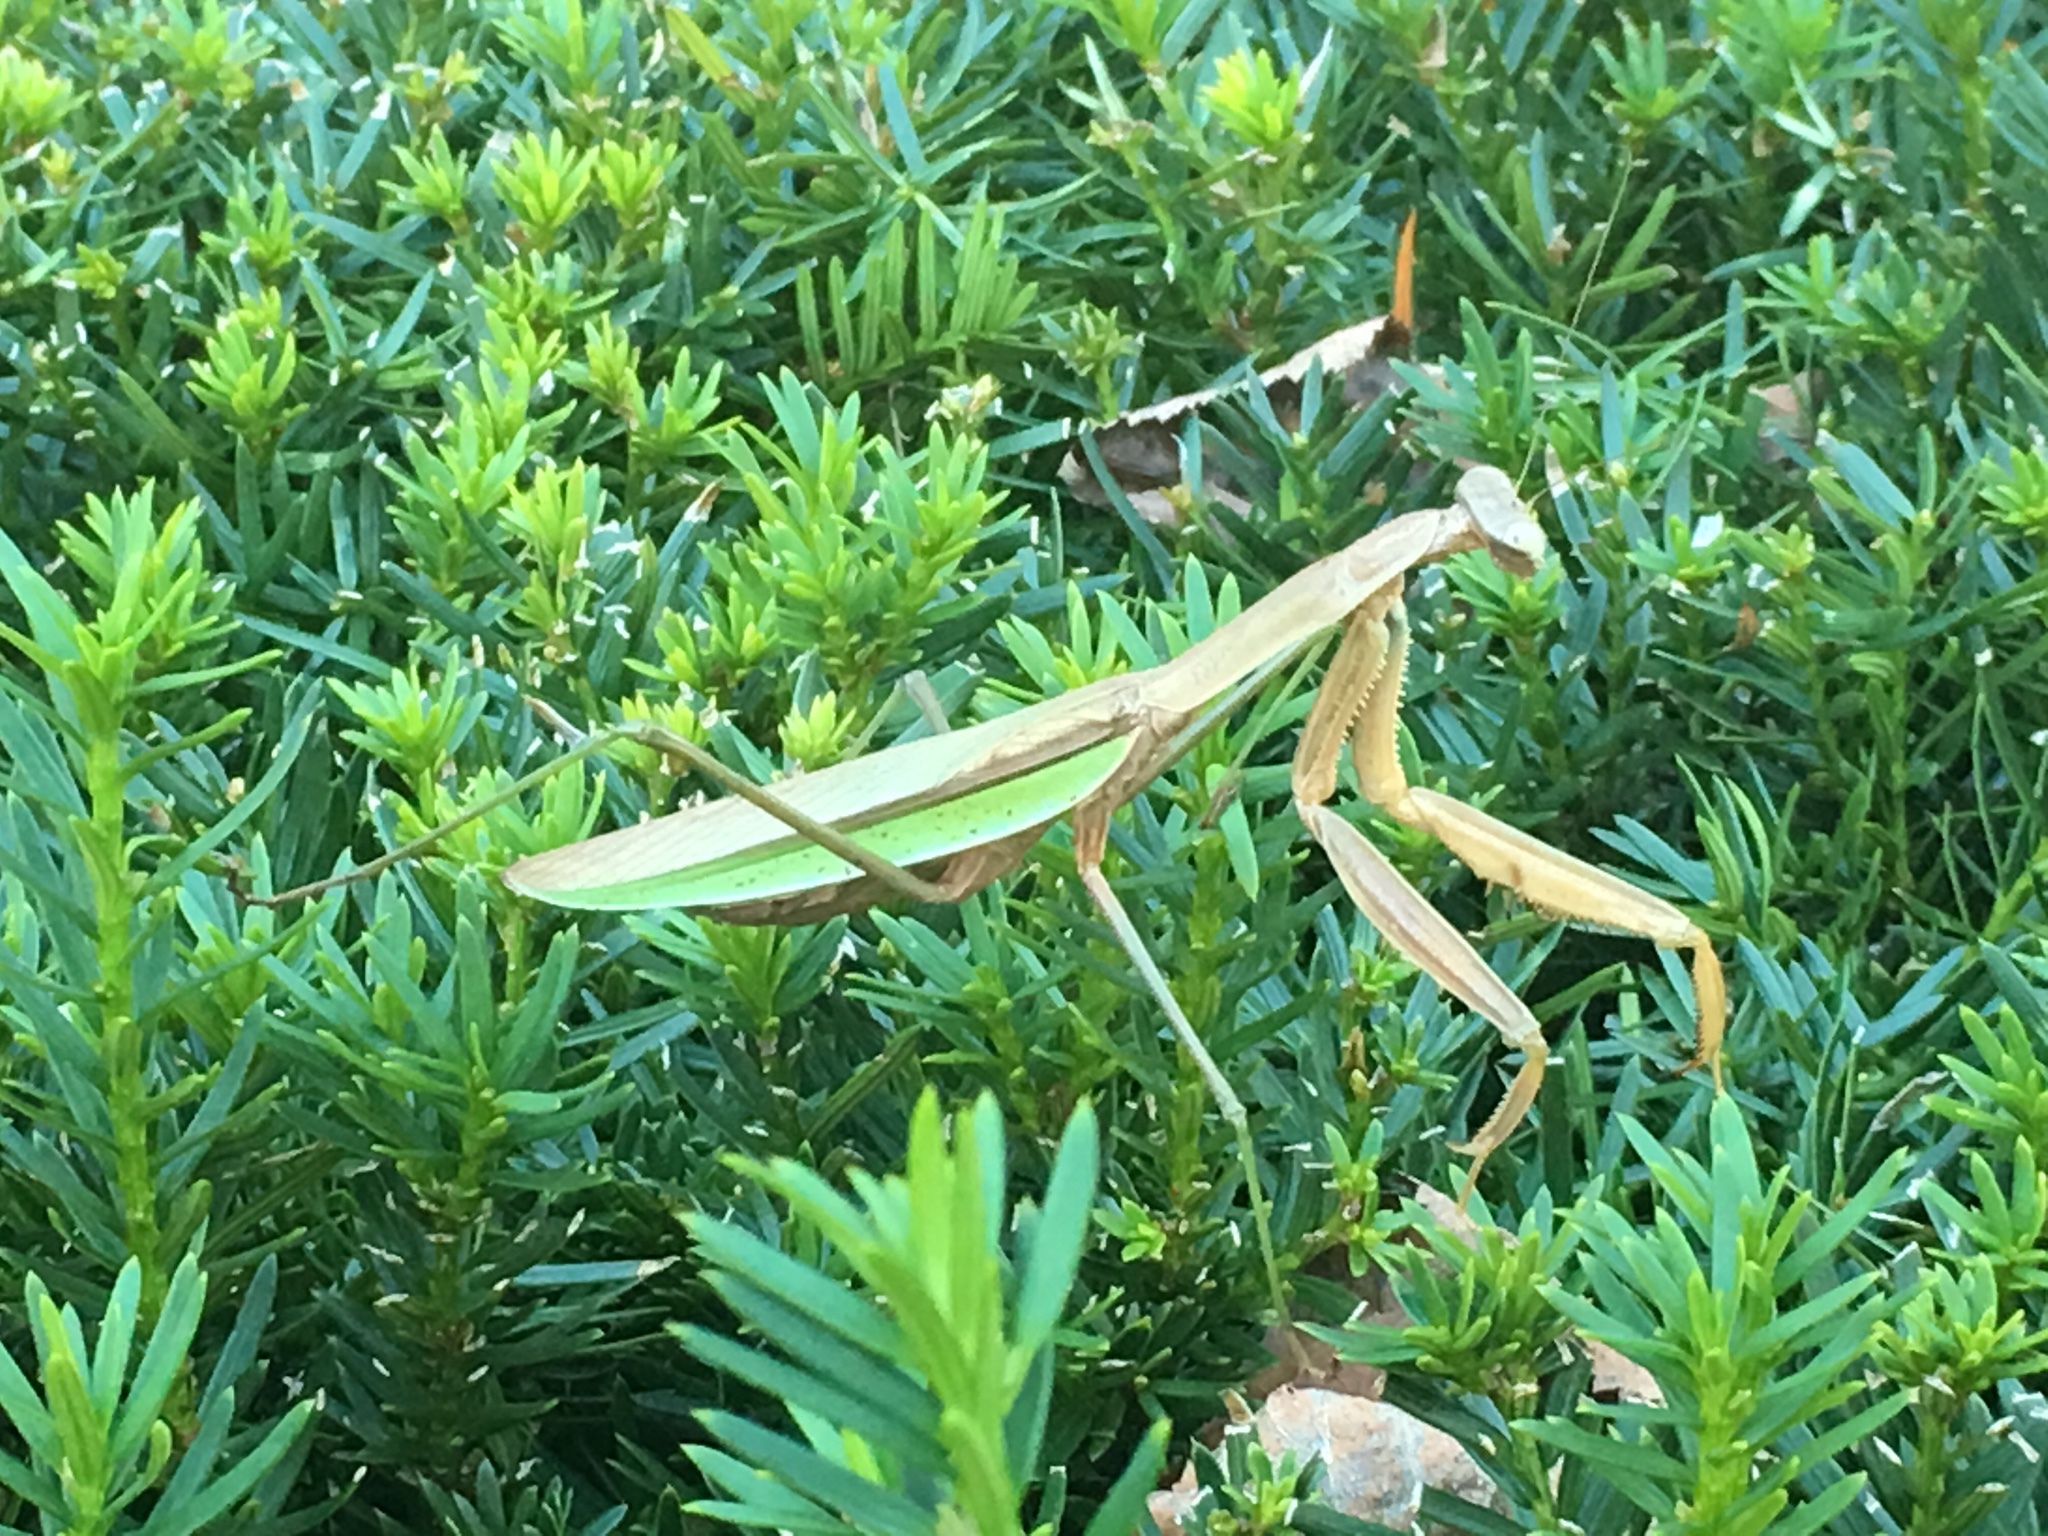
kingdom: Animalia
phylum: Arthropoda
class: Insecta
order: Mantodea
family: Mantidae
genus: Tenodera
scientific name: Tenodera sinensis
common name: Chinese mantis
